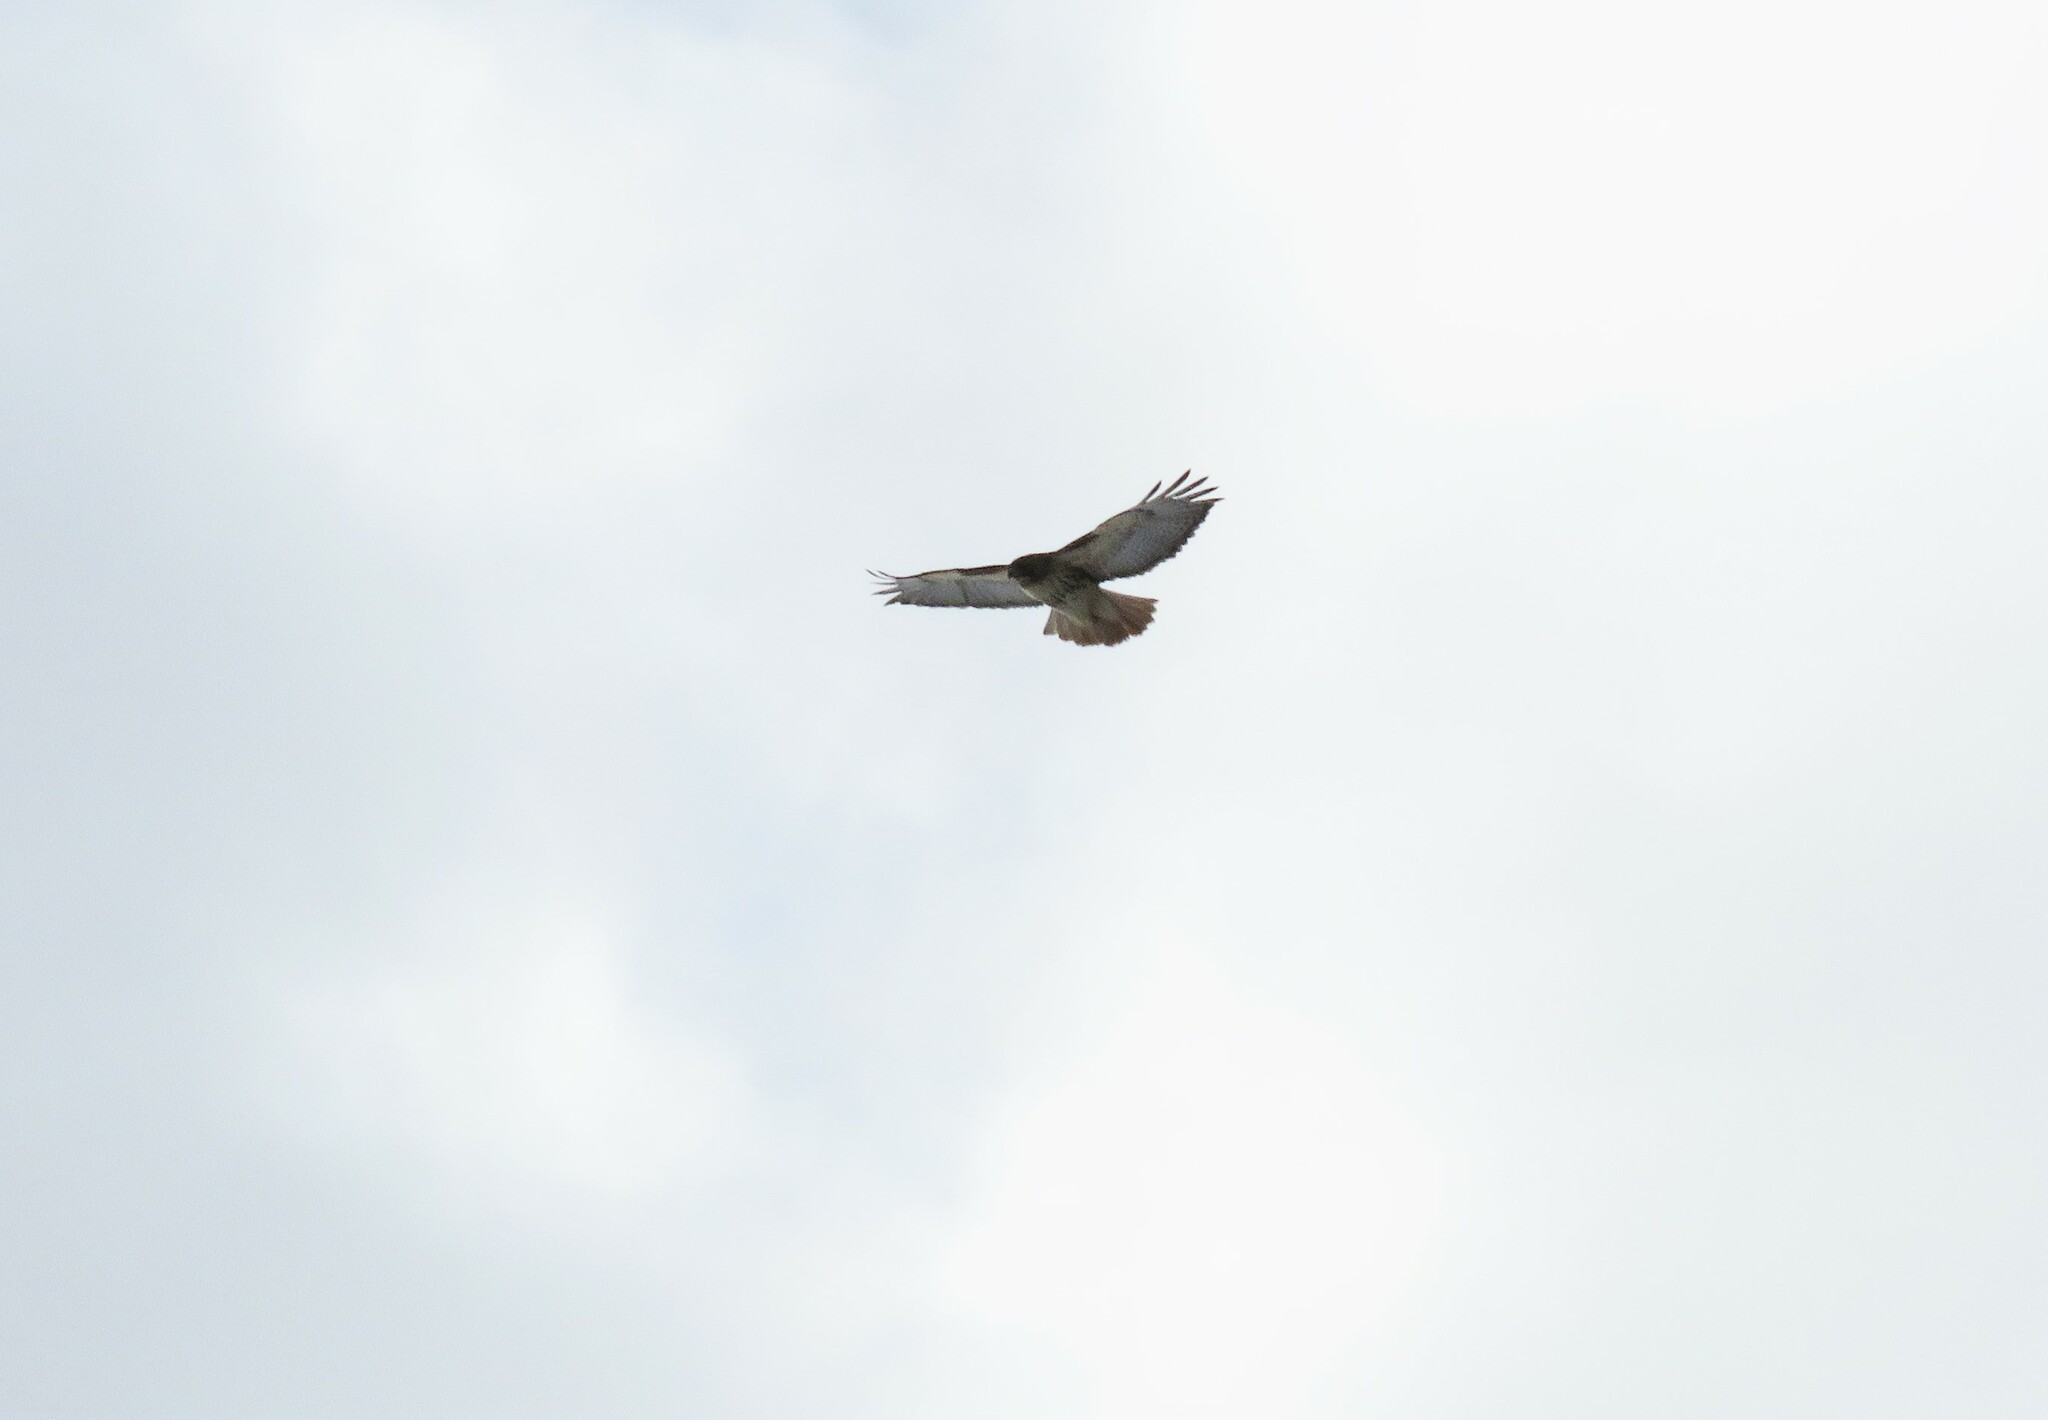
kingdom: Animalia
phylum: Chordata
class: Aves
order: Accipitriformes
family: Accipitridae
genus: Buteo
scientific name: Buteo jamaicensis
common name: Red-tailed hawk
